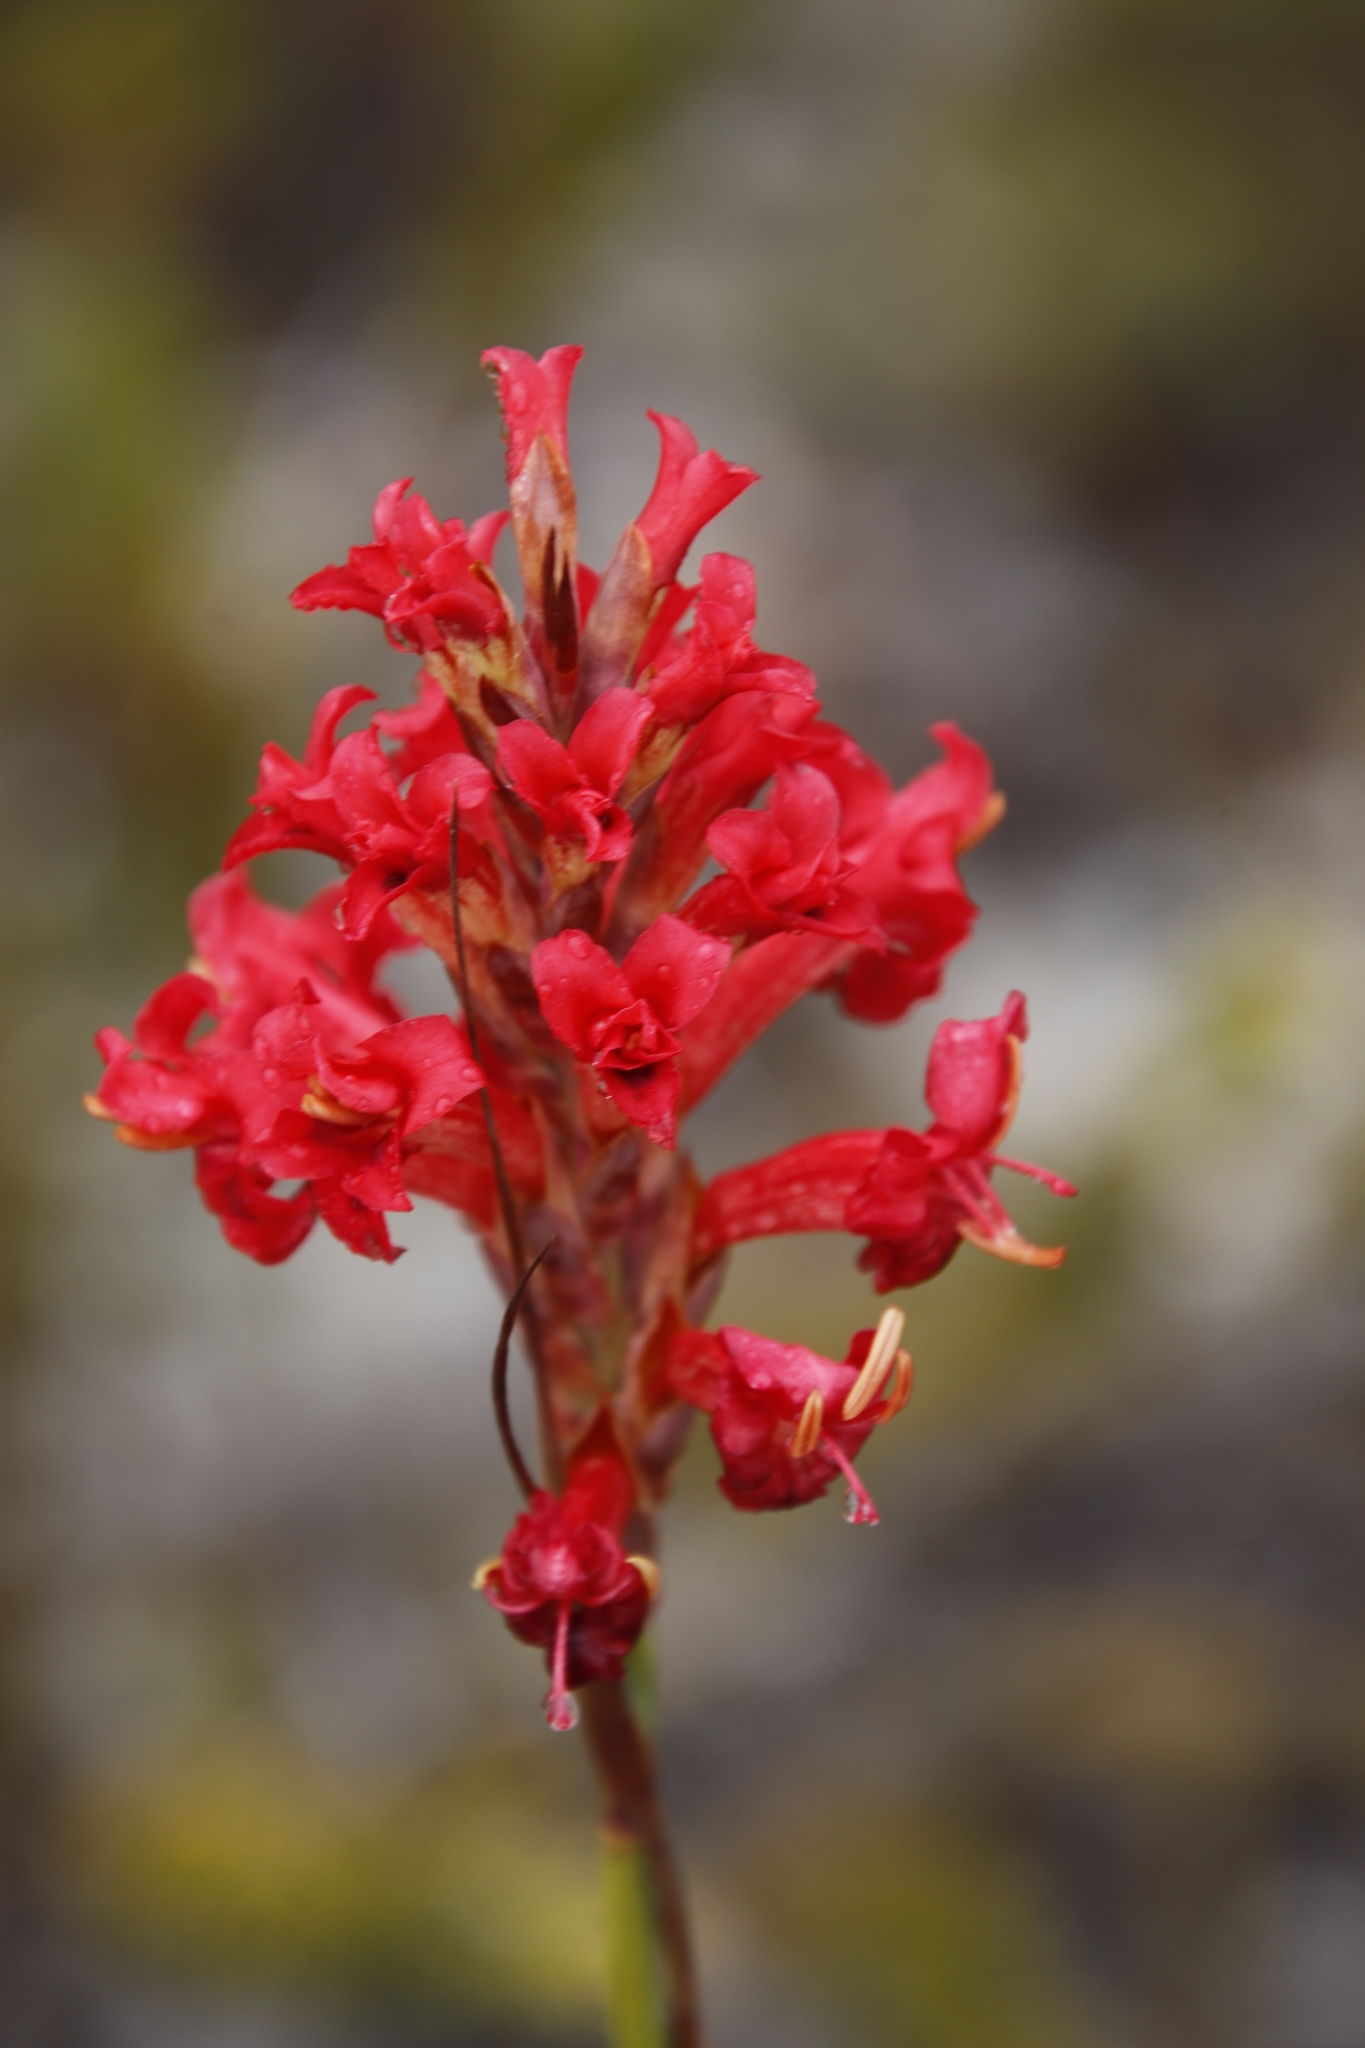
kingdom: Plantae
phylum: Tracheophyta
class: Liliopsida
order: Asparagales
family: Iridaceae
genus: Tritoniopsis
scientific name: Tritoniopsis triticea
